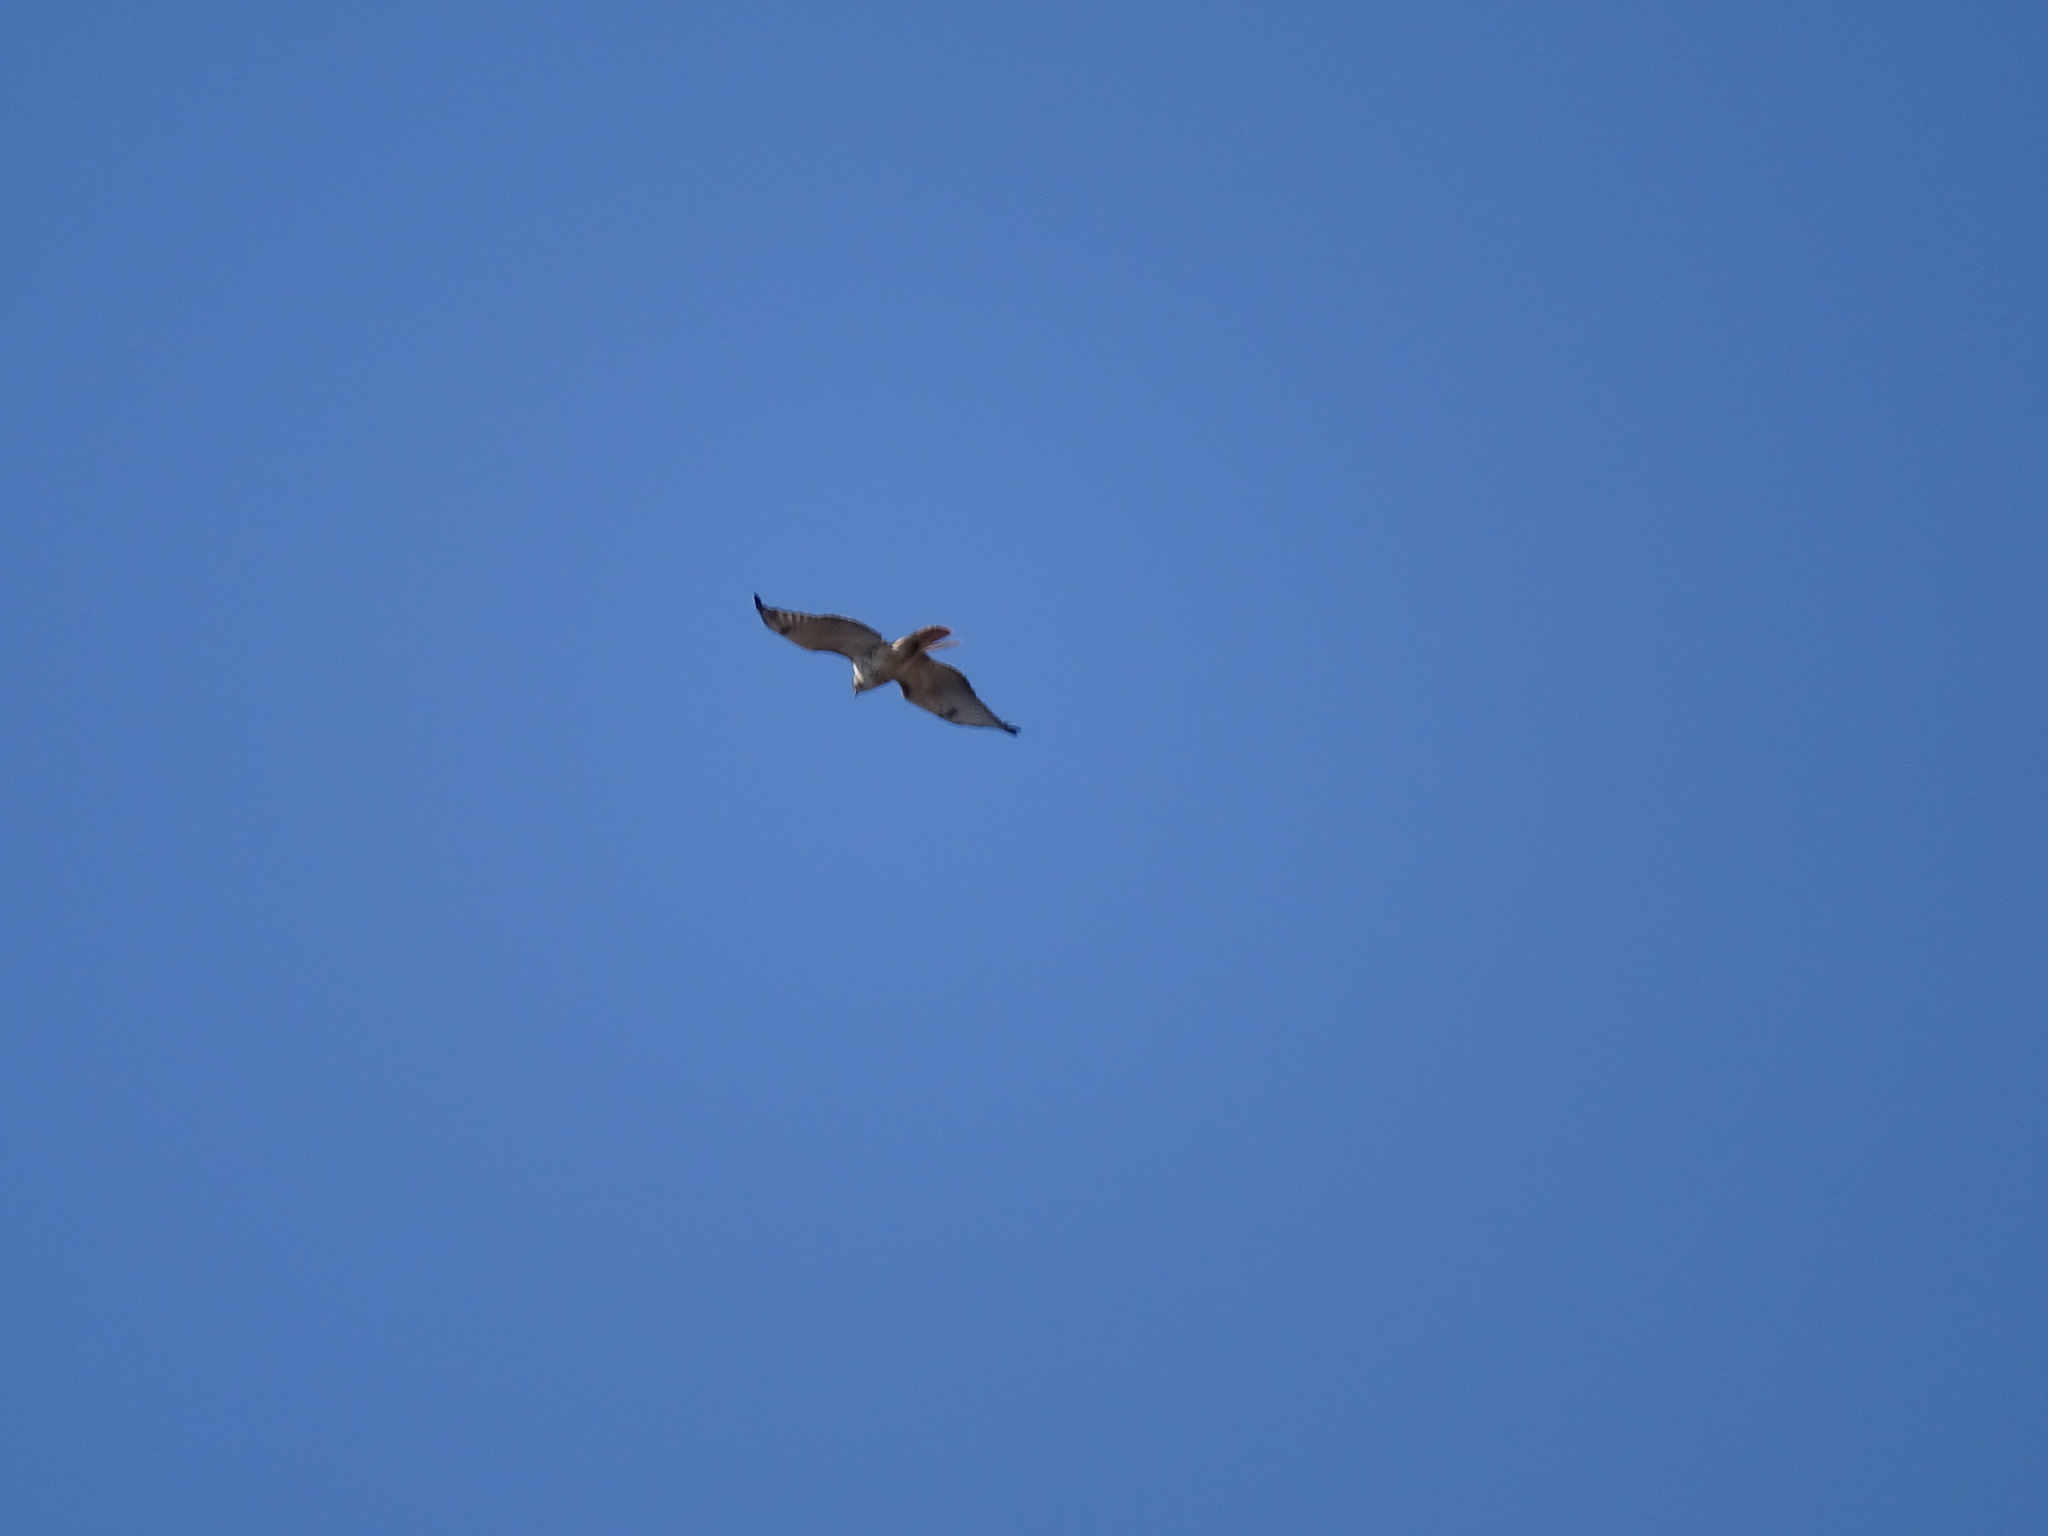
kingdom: Animalia
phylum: Chordata
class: Aves
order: Accipitriformes
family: Accipitridae
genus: Buteo
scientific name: Buteo jamaicensis
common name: Red-tailed hawk
